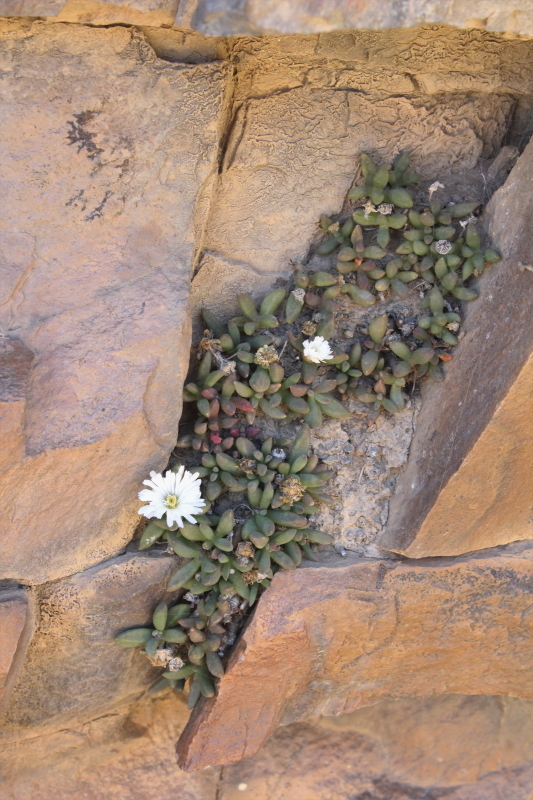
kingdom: Plantae
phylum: Tracheophyta
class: Magnoliopsida
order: Caryophyllales
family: Aizoaceae
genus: Delosperma
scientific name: Delosperma esterhuyseniae
